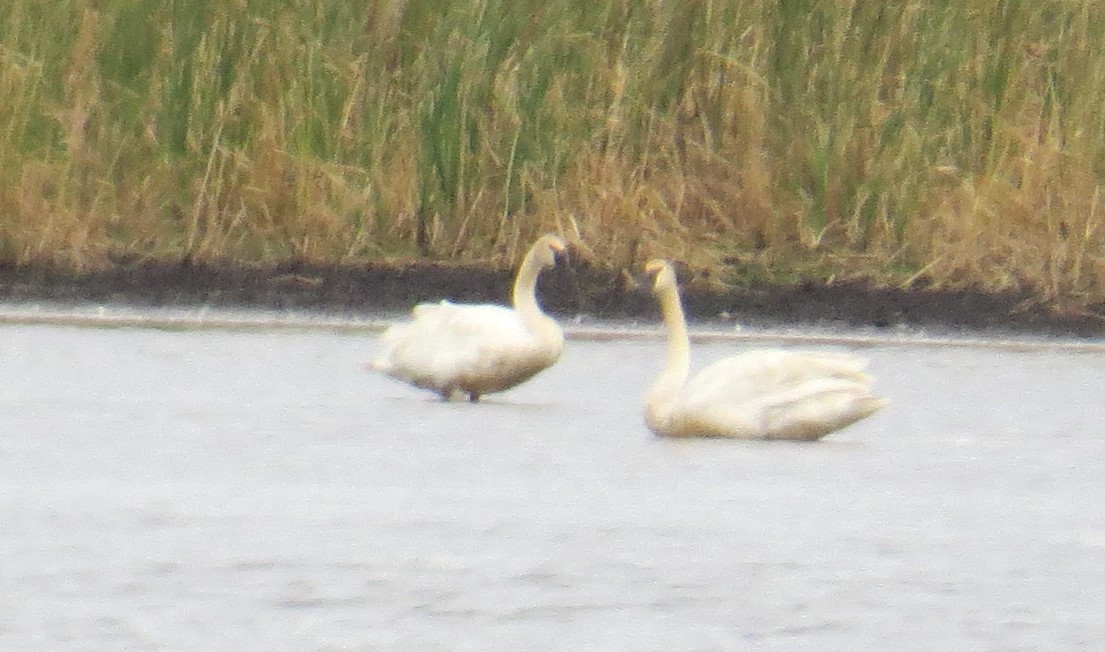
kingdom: Animalia
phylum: Chordata
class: Aves
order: Anseriformes
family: Anatidae
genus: Cygnus
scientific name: Cygnus buccinator
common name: Trumpeter swan
